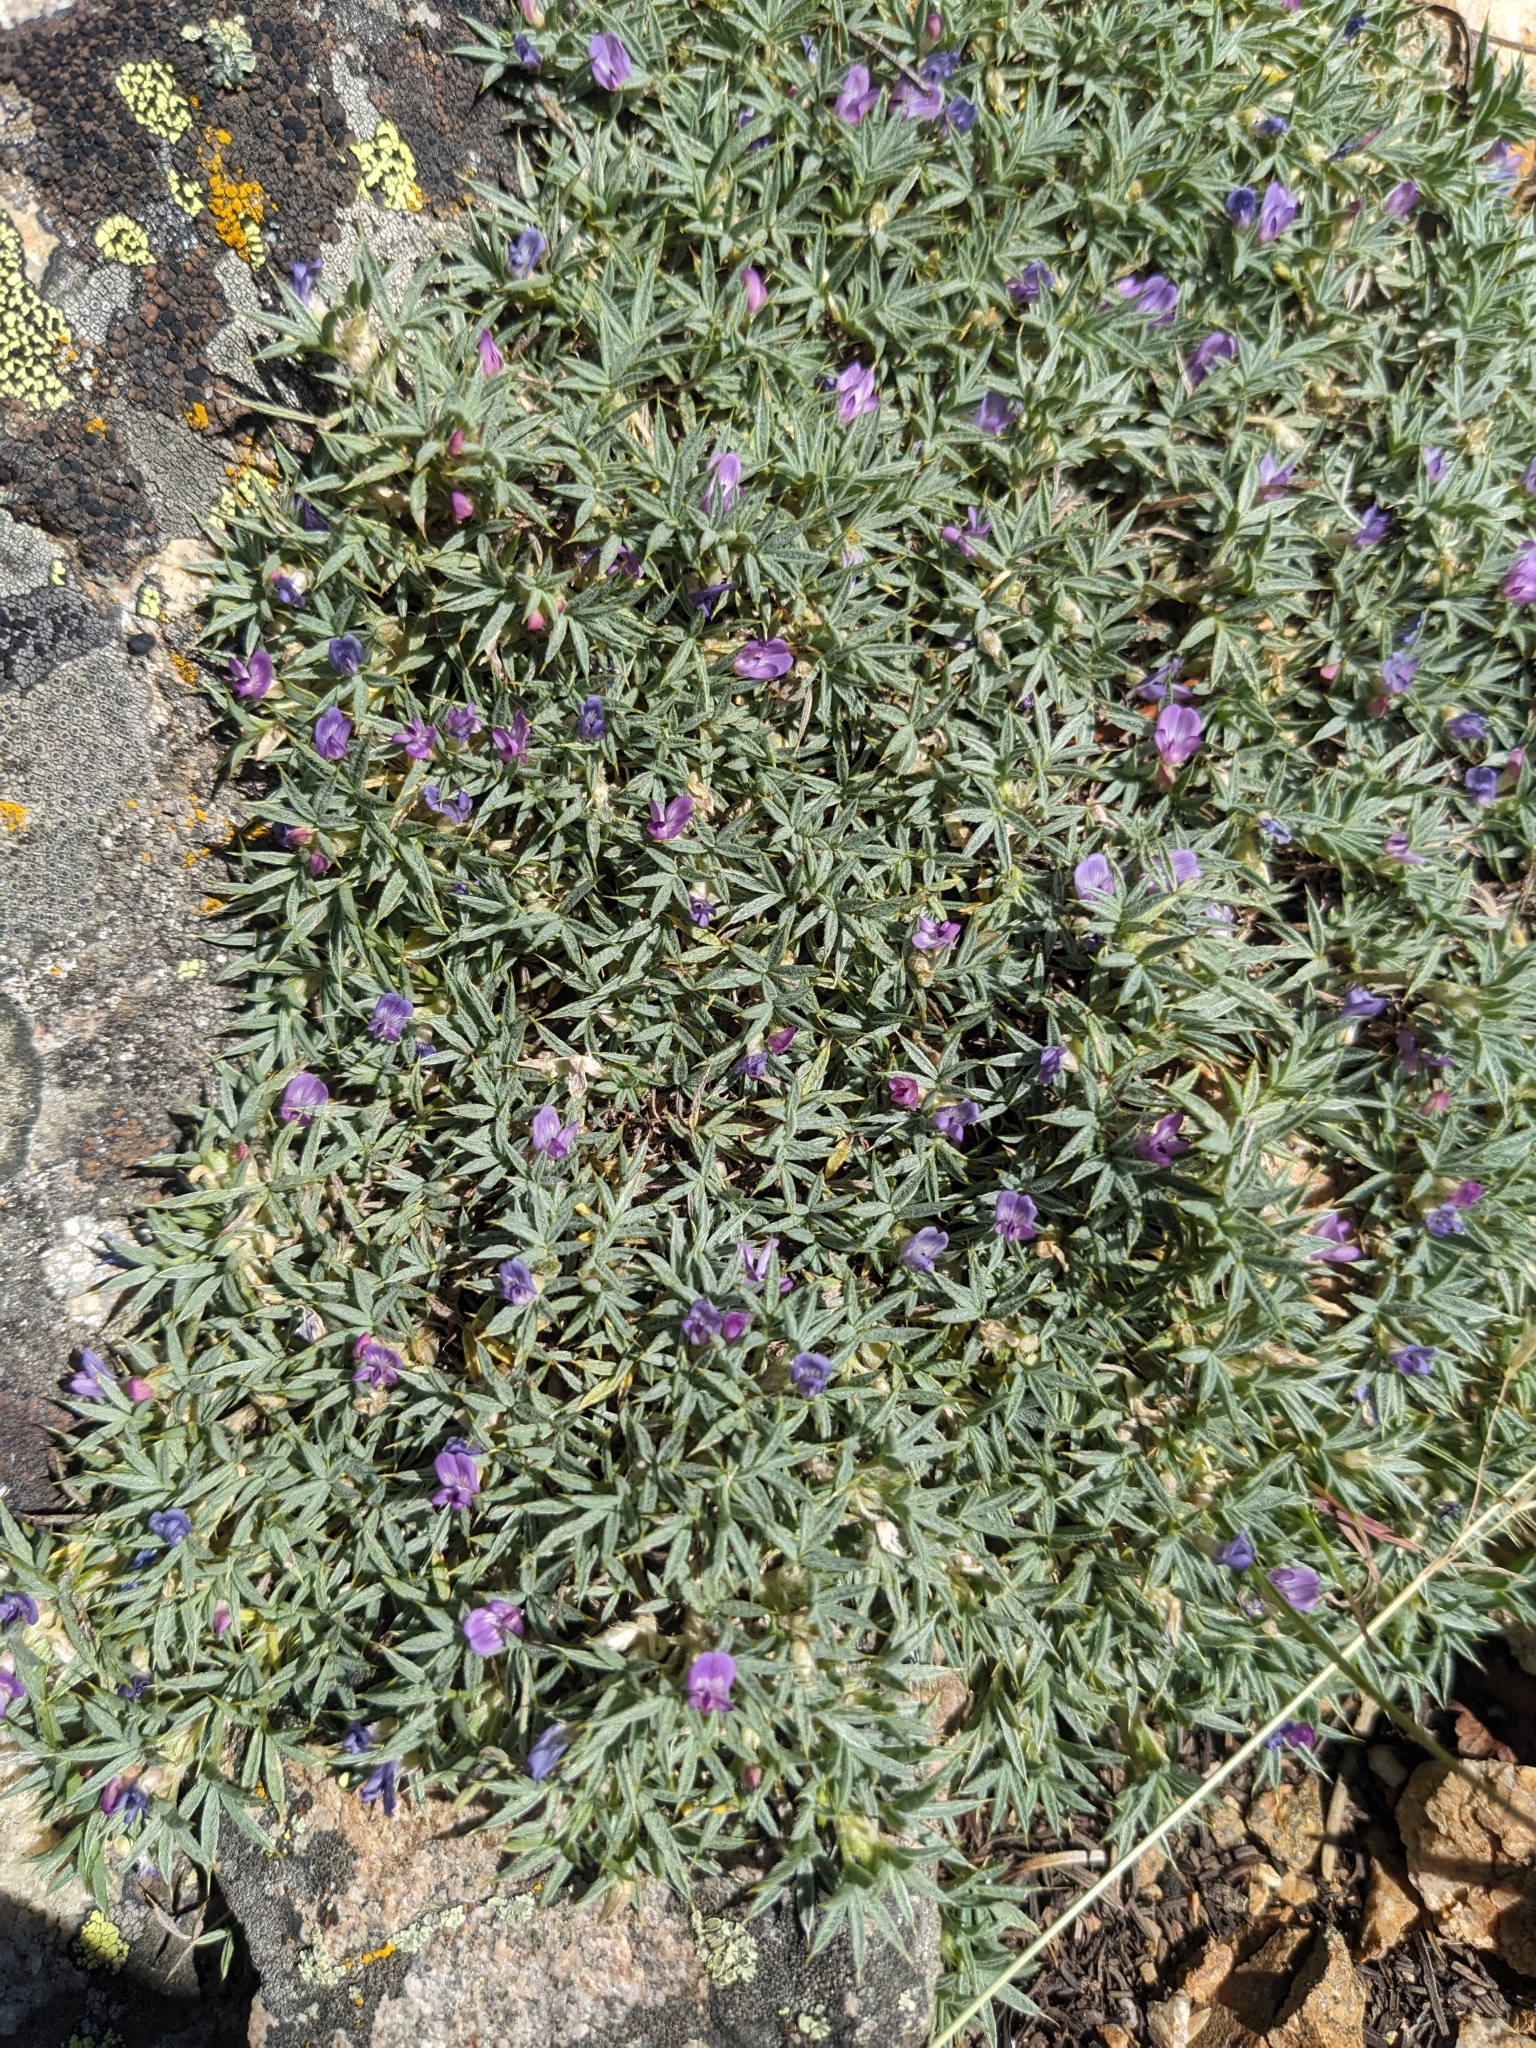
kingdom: Plantae
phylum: Tracheophyta
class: Magnoliopsida
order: Fabales
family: Fabaceae
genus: Astragalus
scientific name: Astragalus kentrophyta
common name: Prickly milk-vetch
